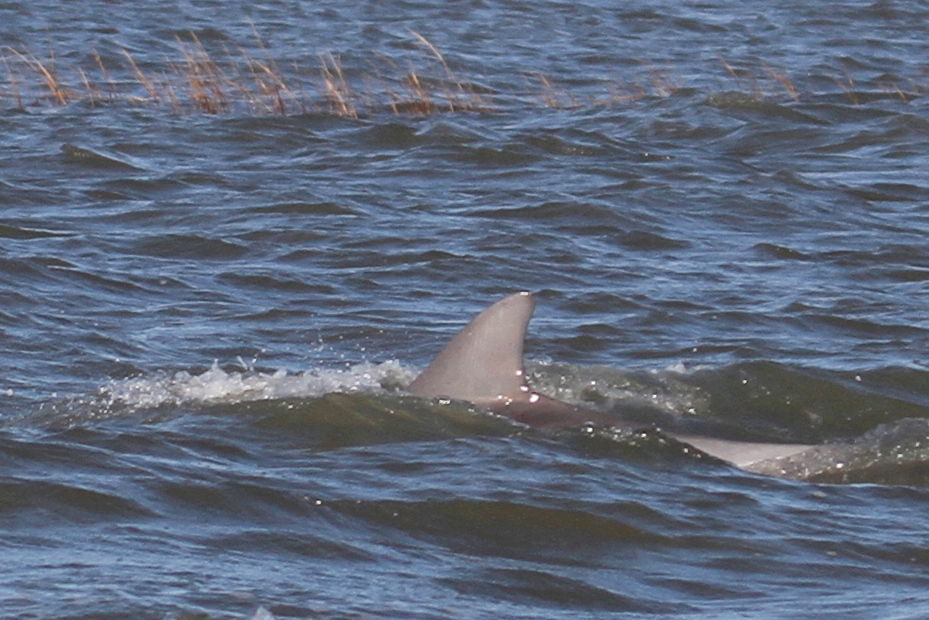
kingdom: Animalia
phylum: Chordata
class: Mammalia
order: Cetacea
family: Delphinidae
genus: Tursiops
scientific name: Tursiops truncatus
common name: Bottlenose dolphin
